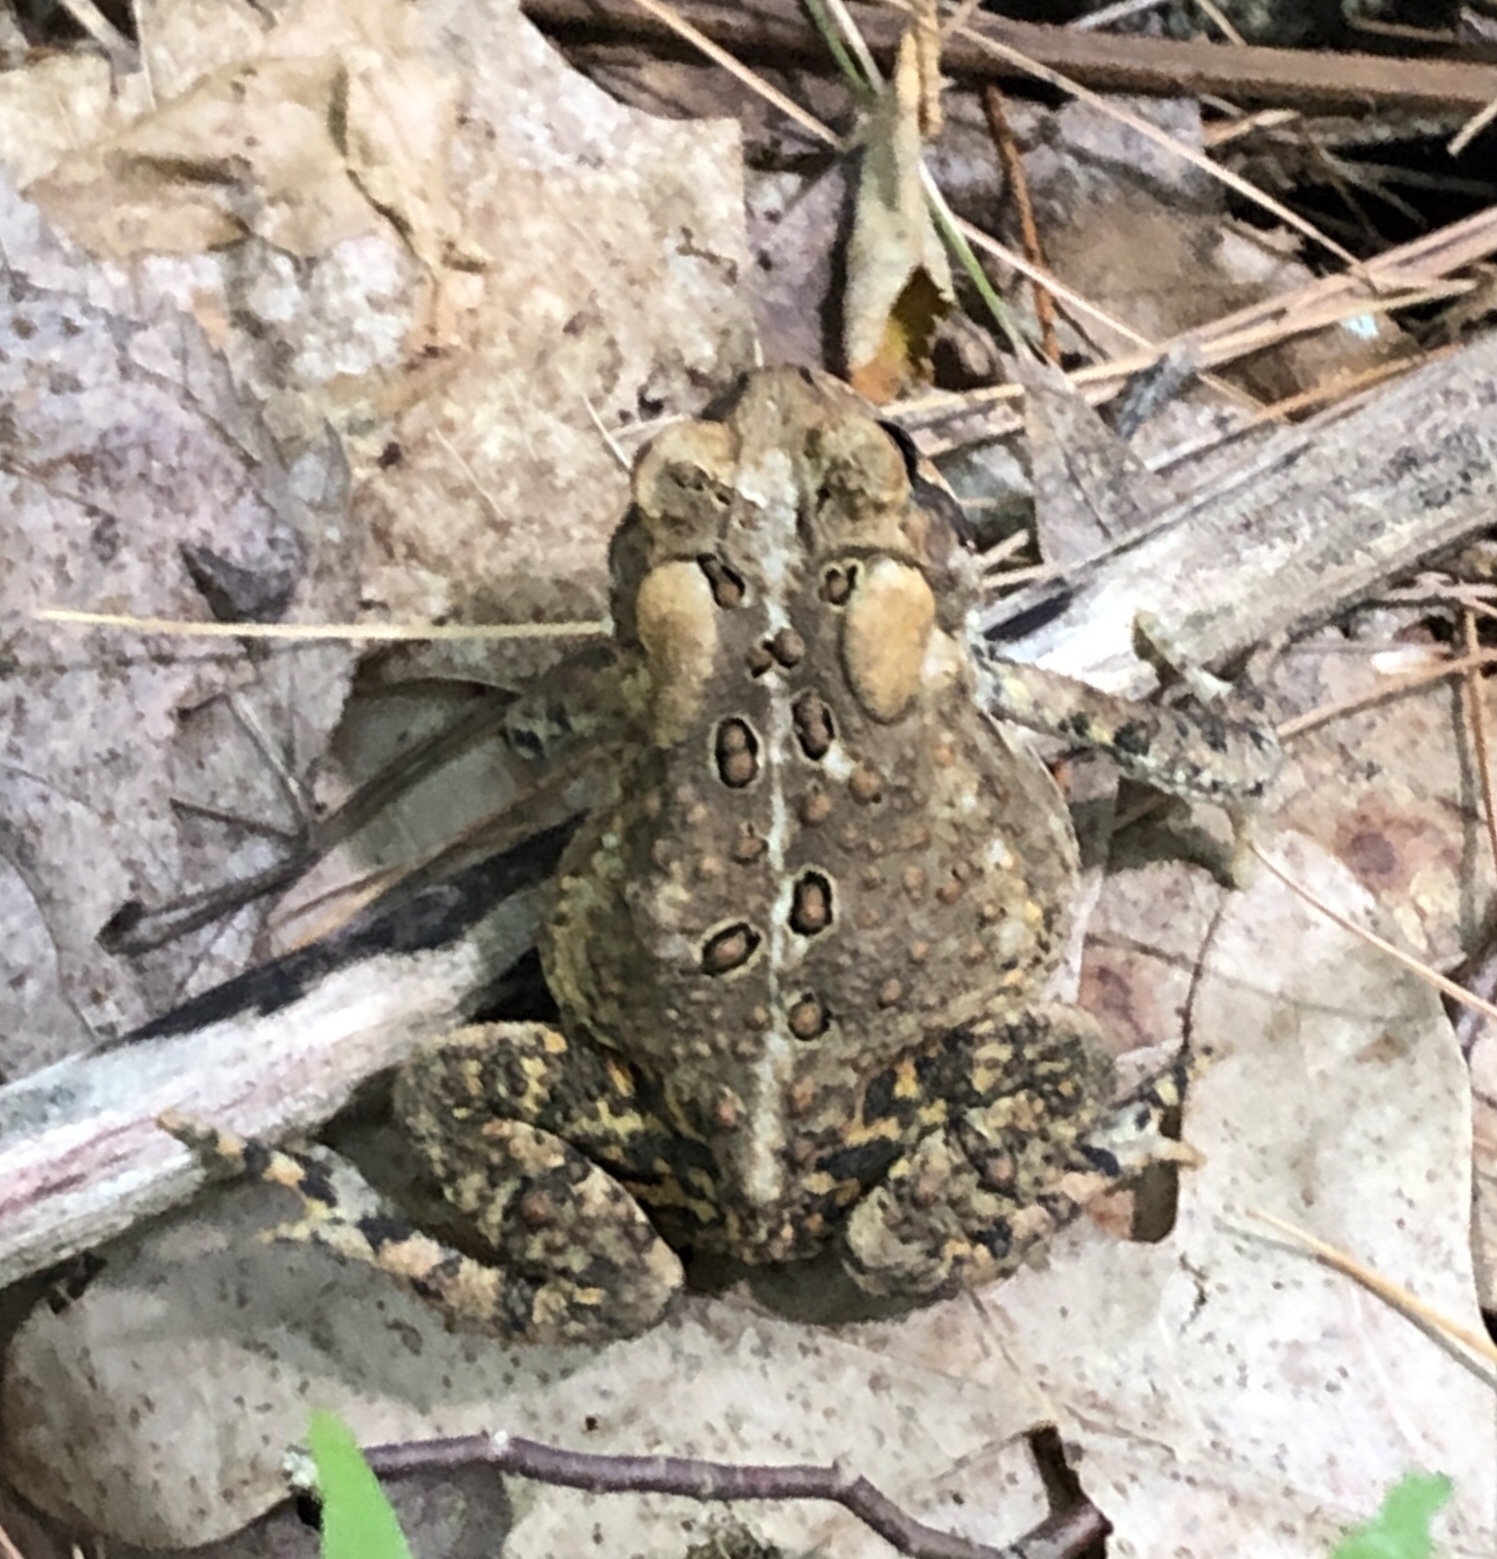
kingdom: Animalia
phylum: Chordata
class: Amphibia
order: Anura
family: Bufonidae
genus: Anaxyrus
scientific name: Anaxyrus americanus
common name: American toad
